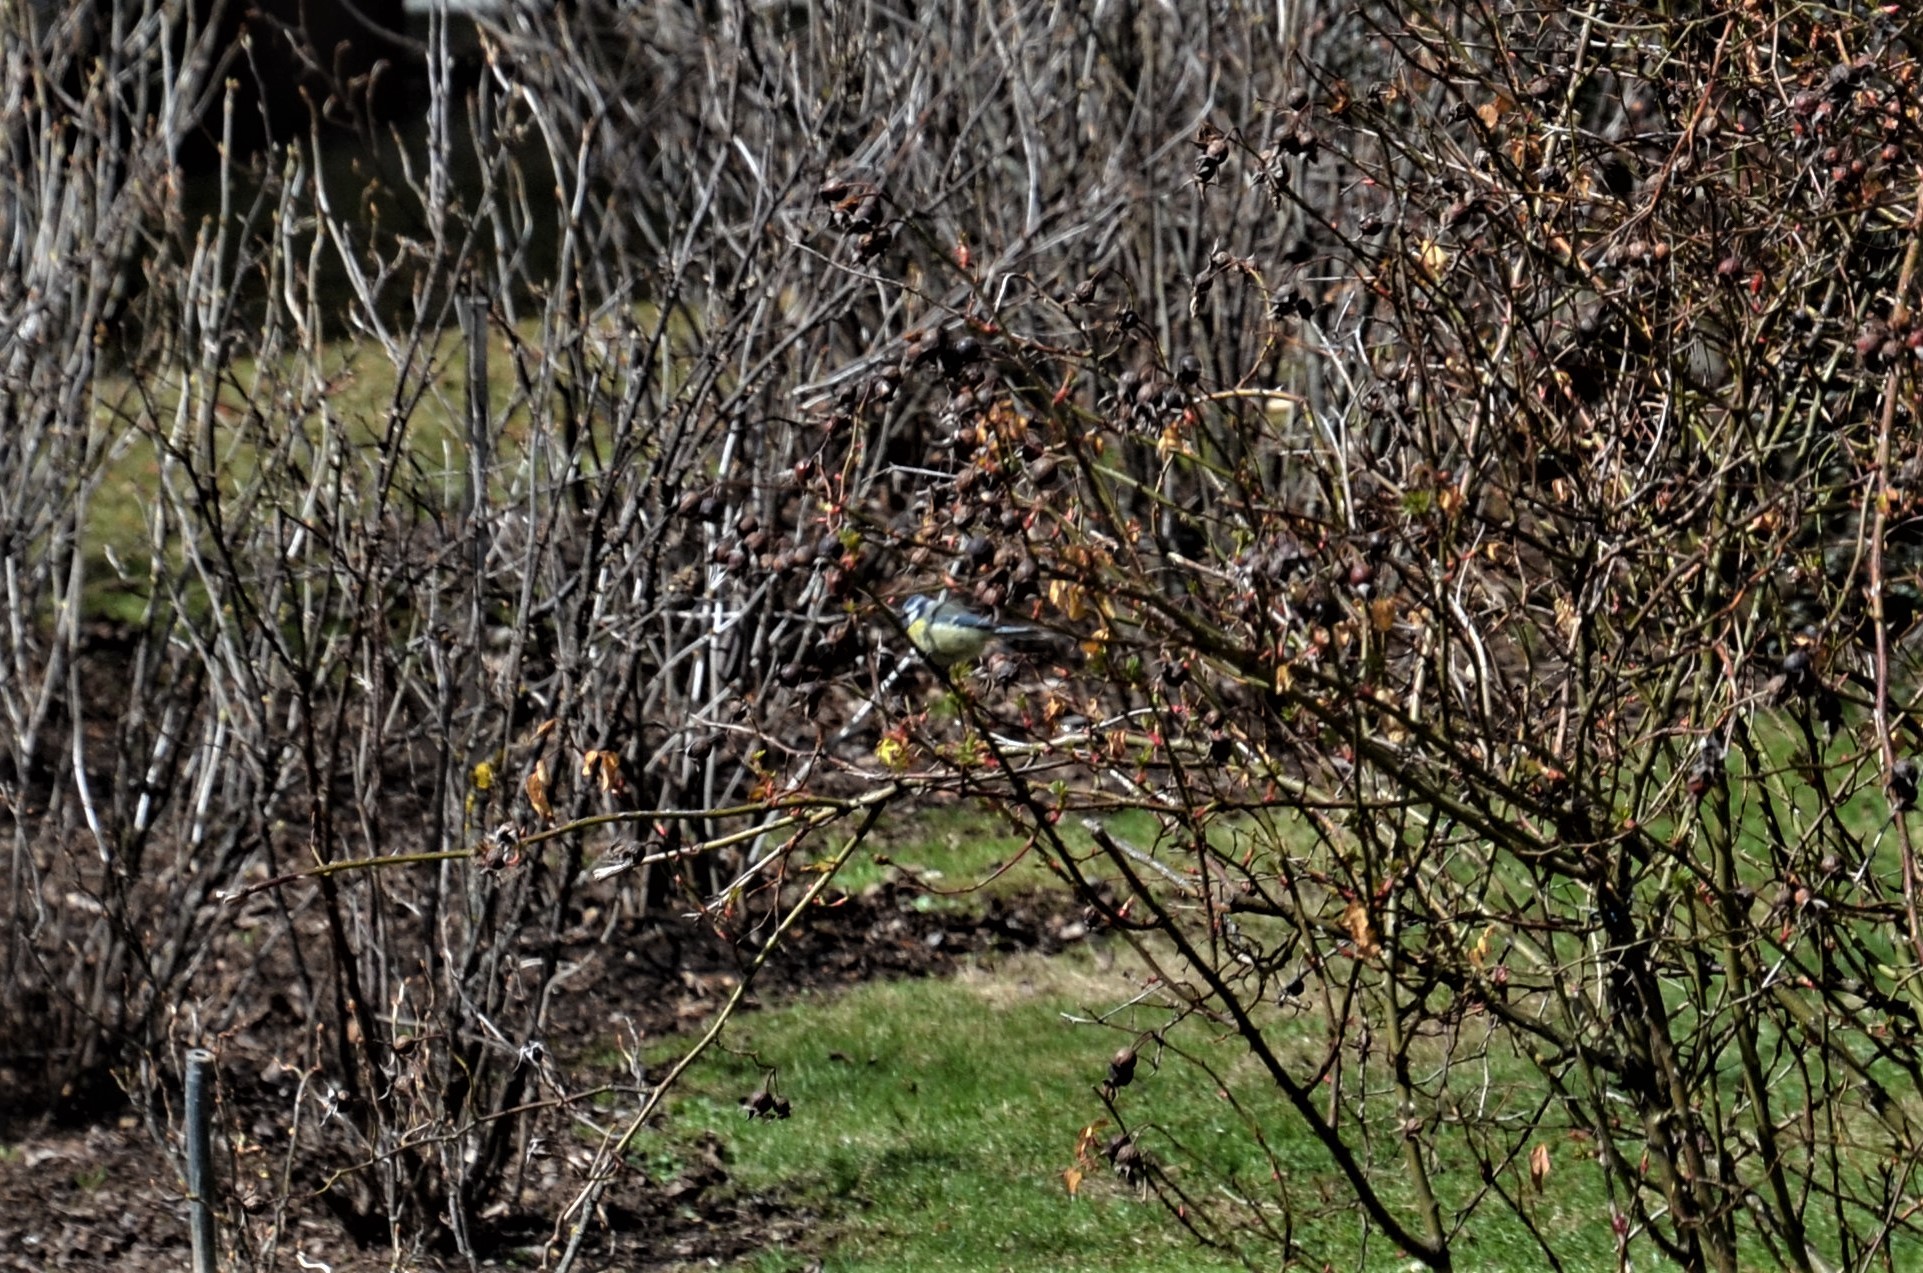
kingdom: Animalia
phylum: Chordata
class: Aves
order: Passeriformes
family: Paridae
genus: Cyanistes
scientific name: Cyanistes caeruleus
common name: Eurasian blue tit
